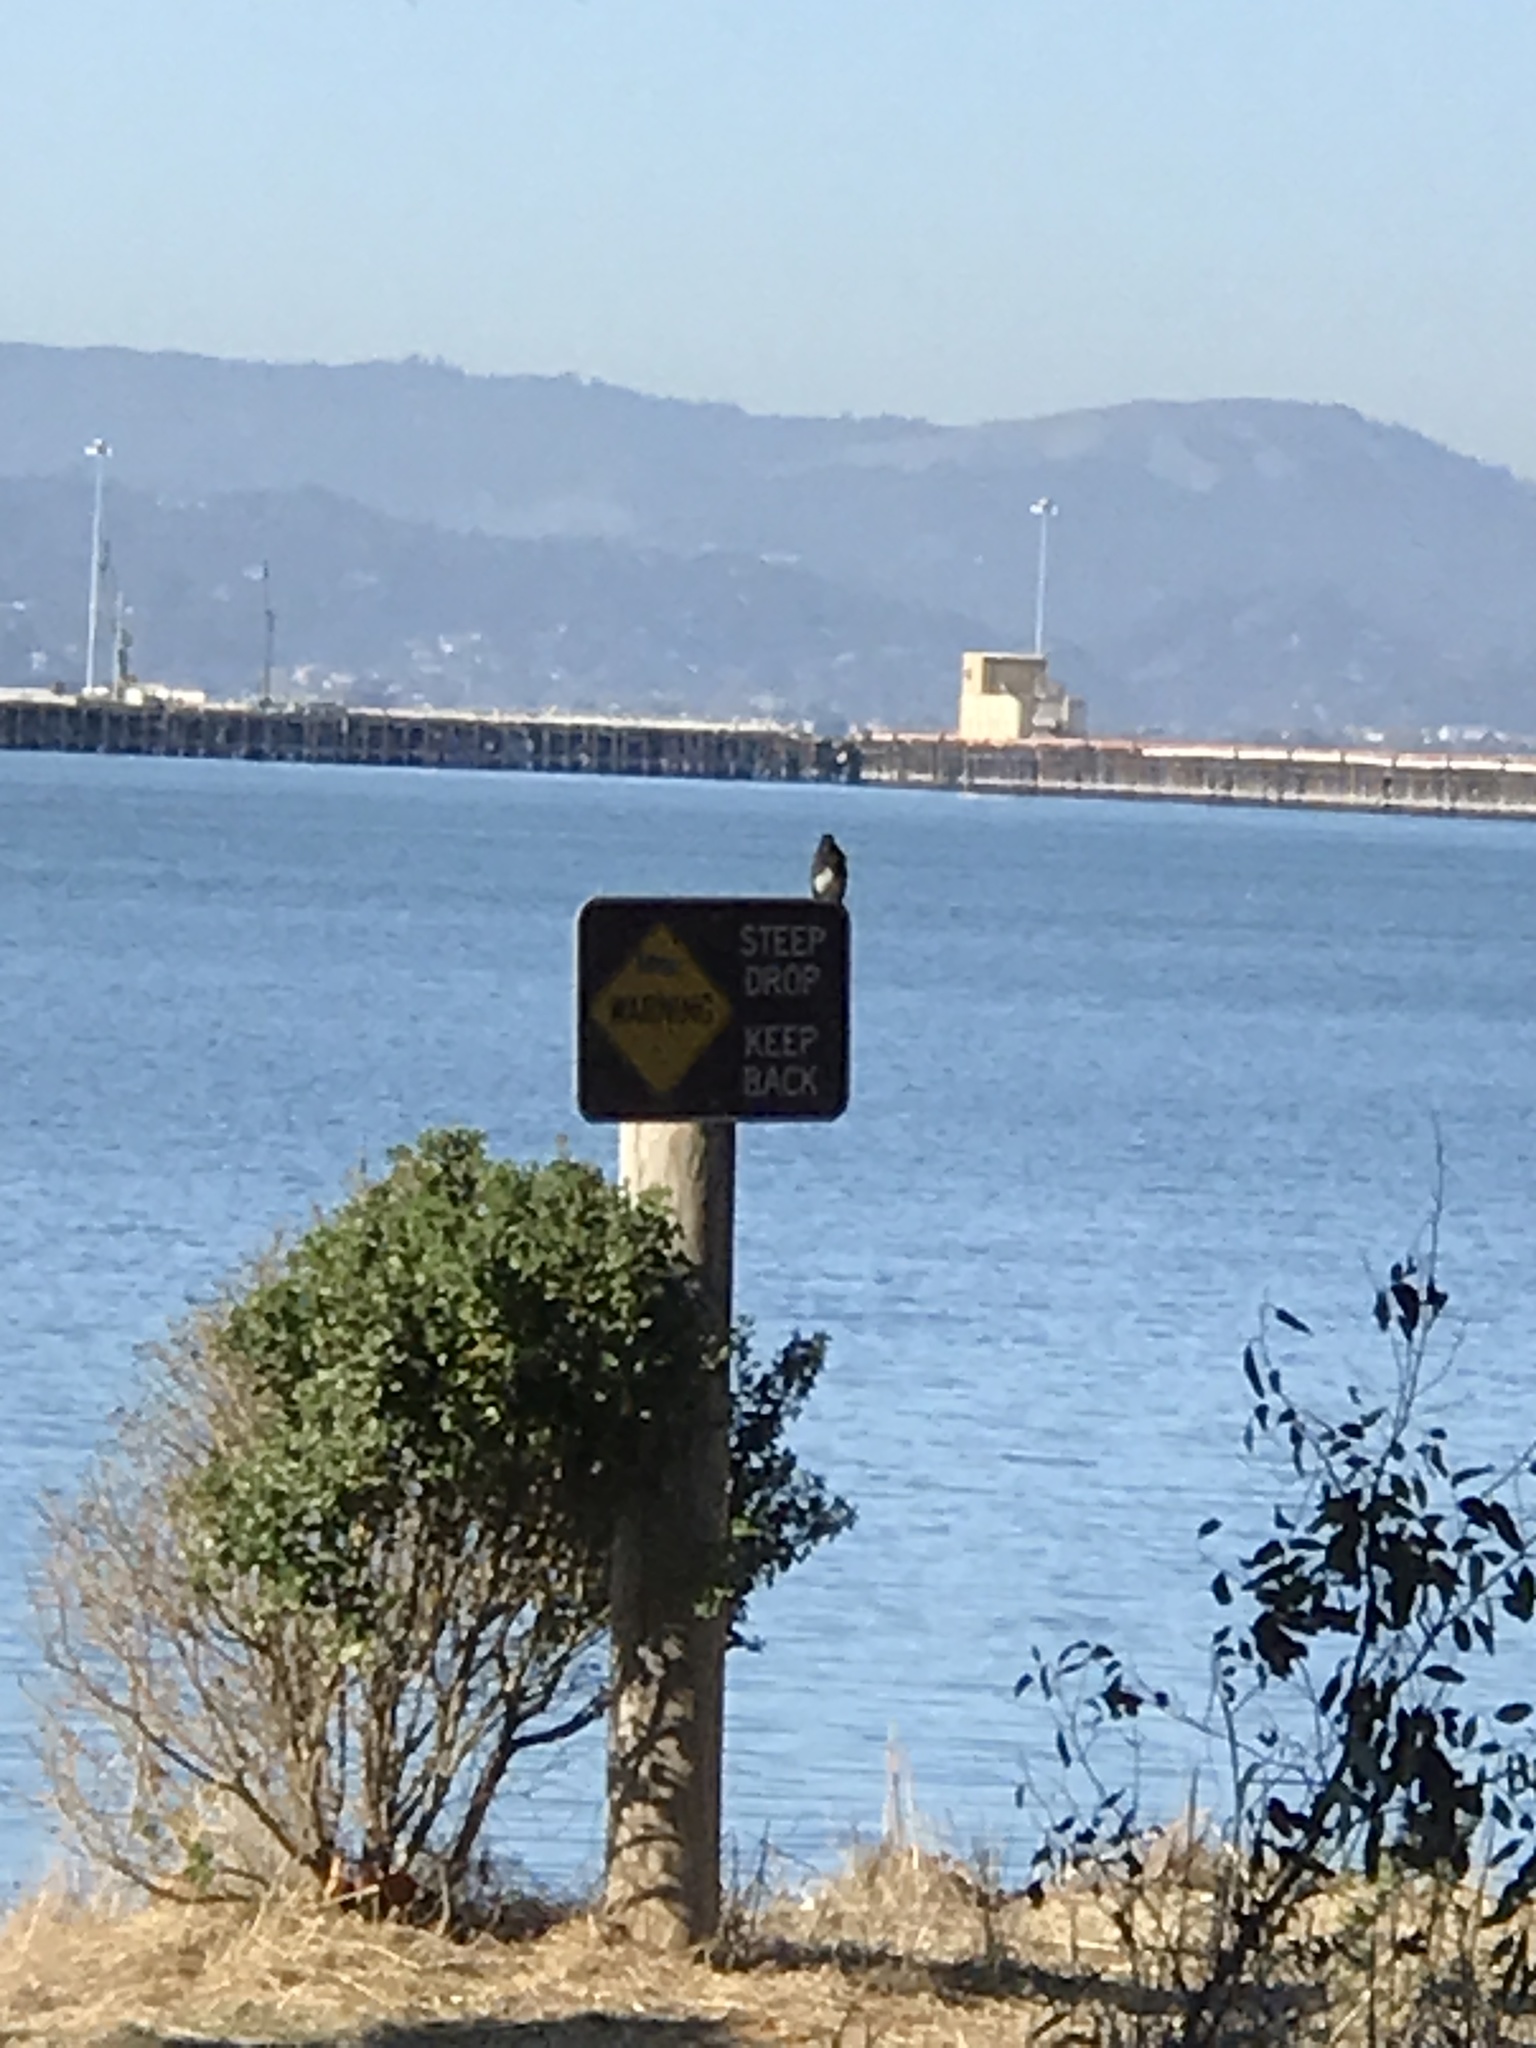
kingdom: Animalia
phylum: Chordata
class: Aves
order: Passeriformes
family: Tyrannidae
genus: Sayornis
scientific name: Sayornis nigricans
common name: Black phoebe
